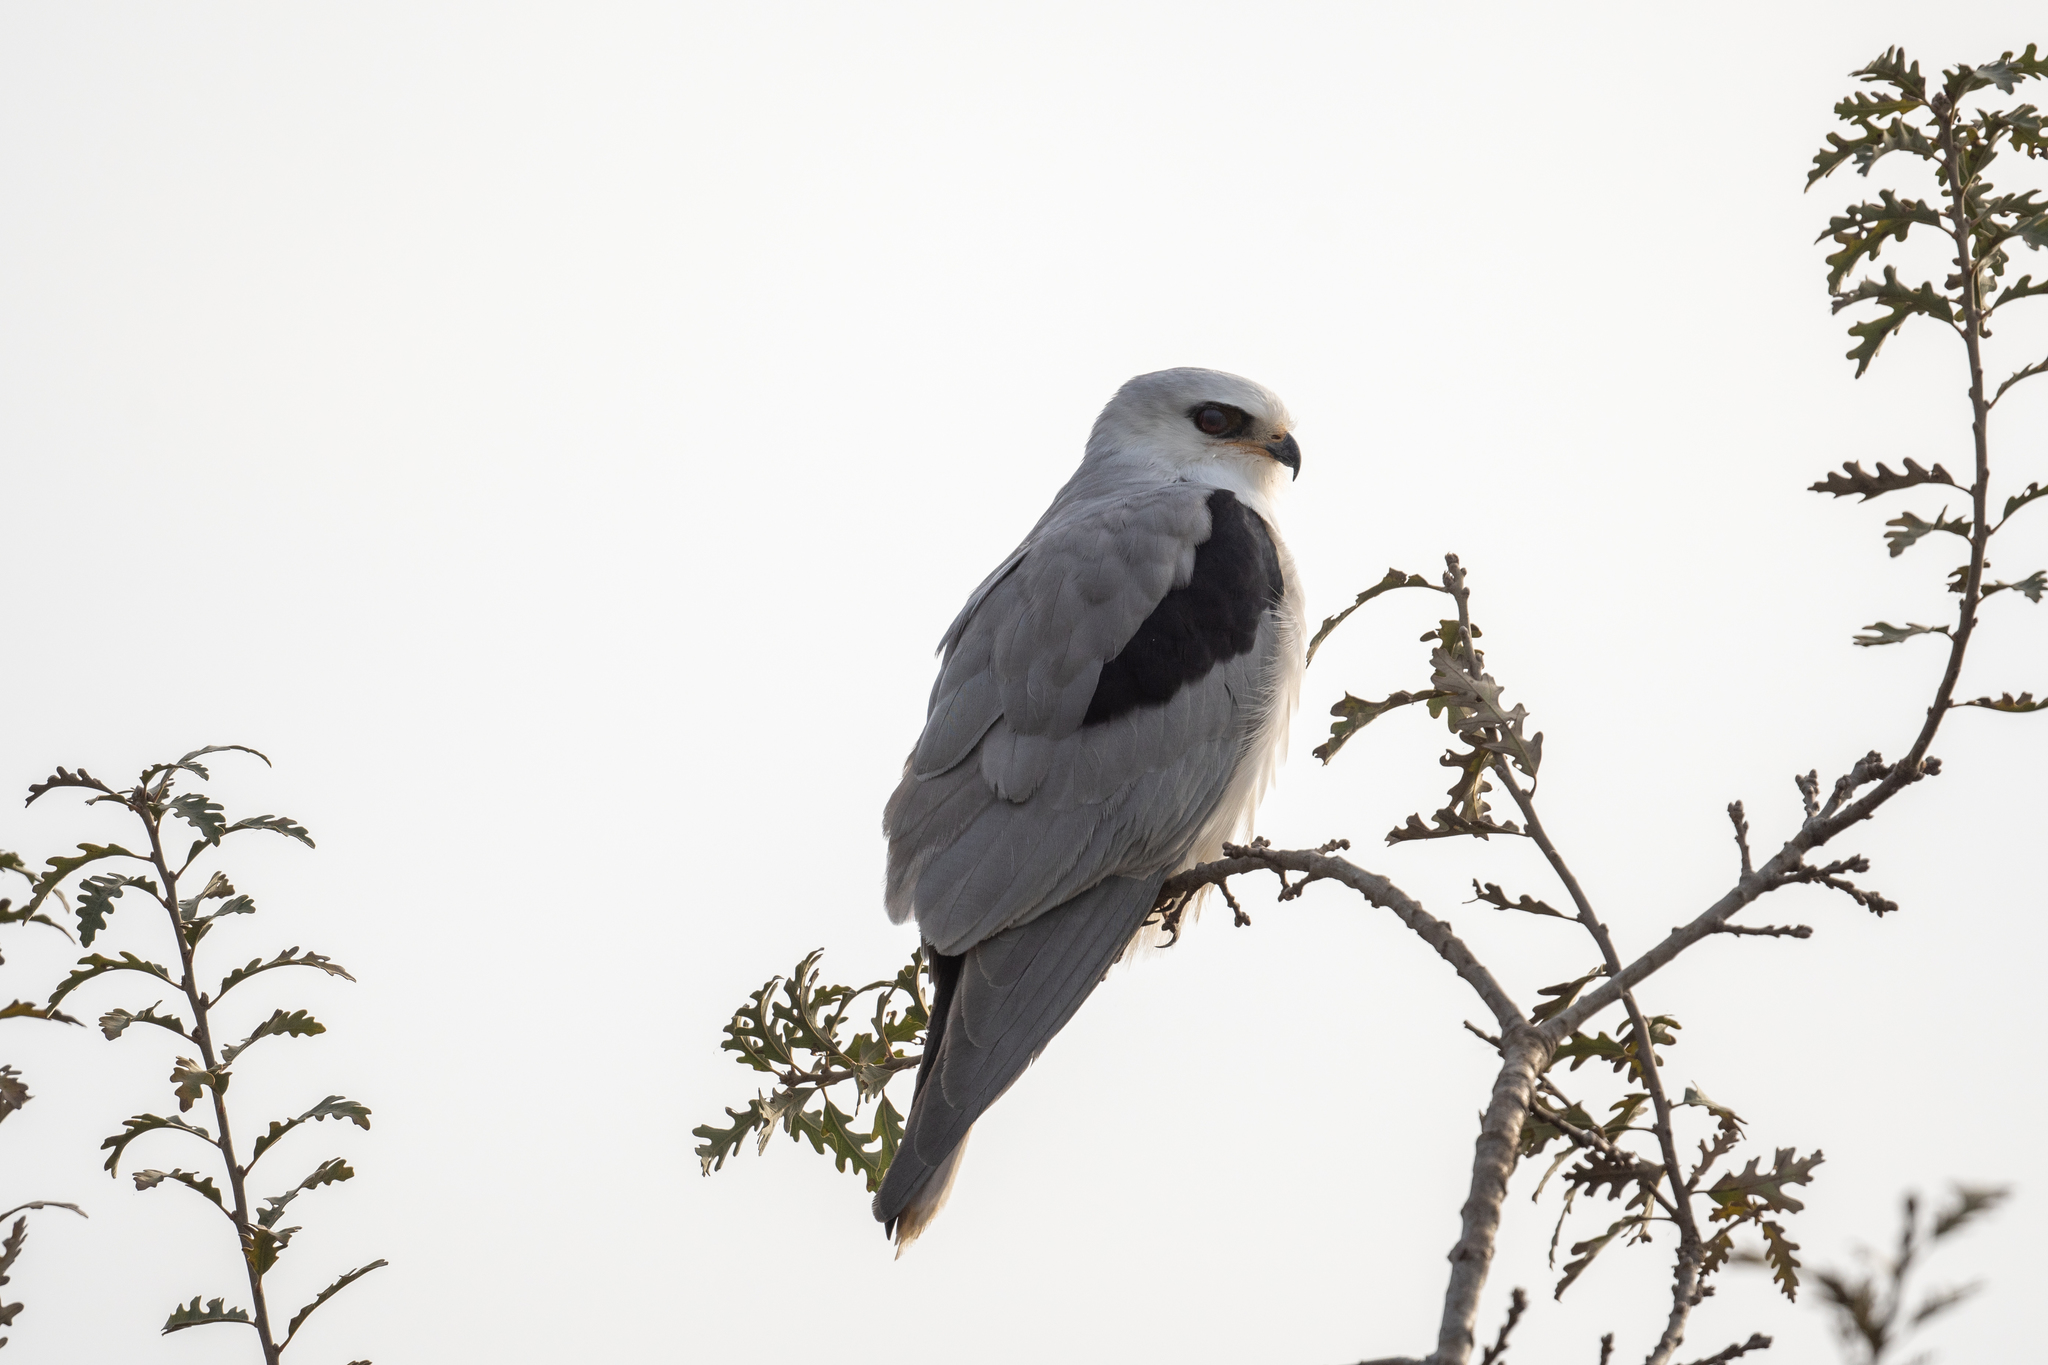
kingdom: Animalia
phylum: Chordata
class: Aves
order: Accipitriformes
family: Accipitridae
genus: Elanus
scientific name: Elanus leucurus
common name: White-tailed kite
